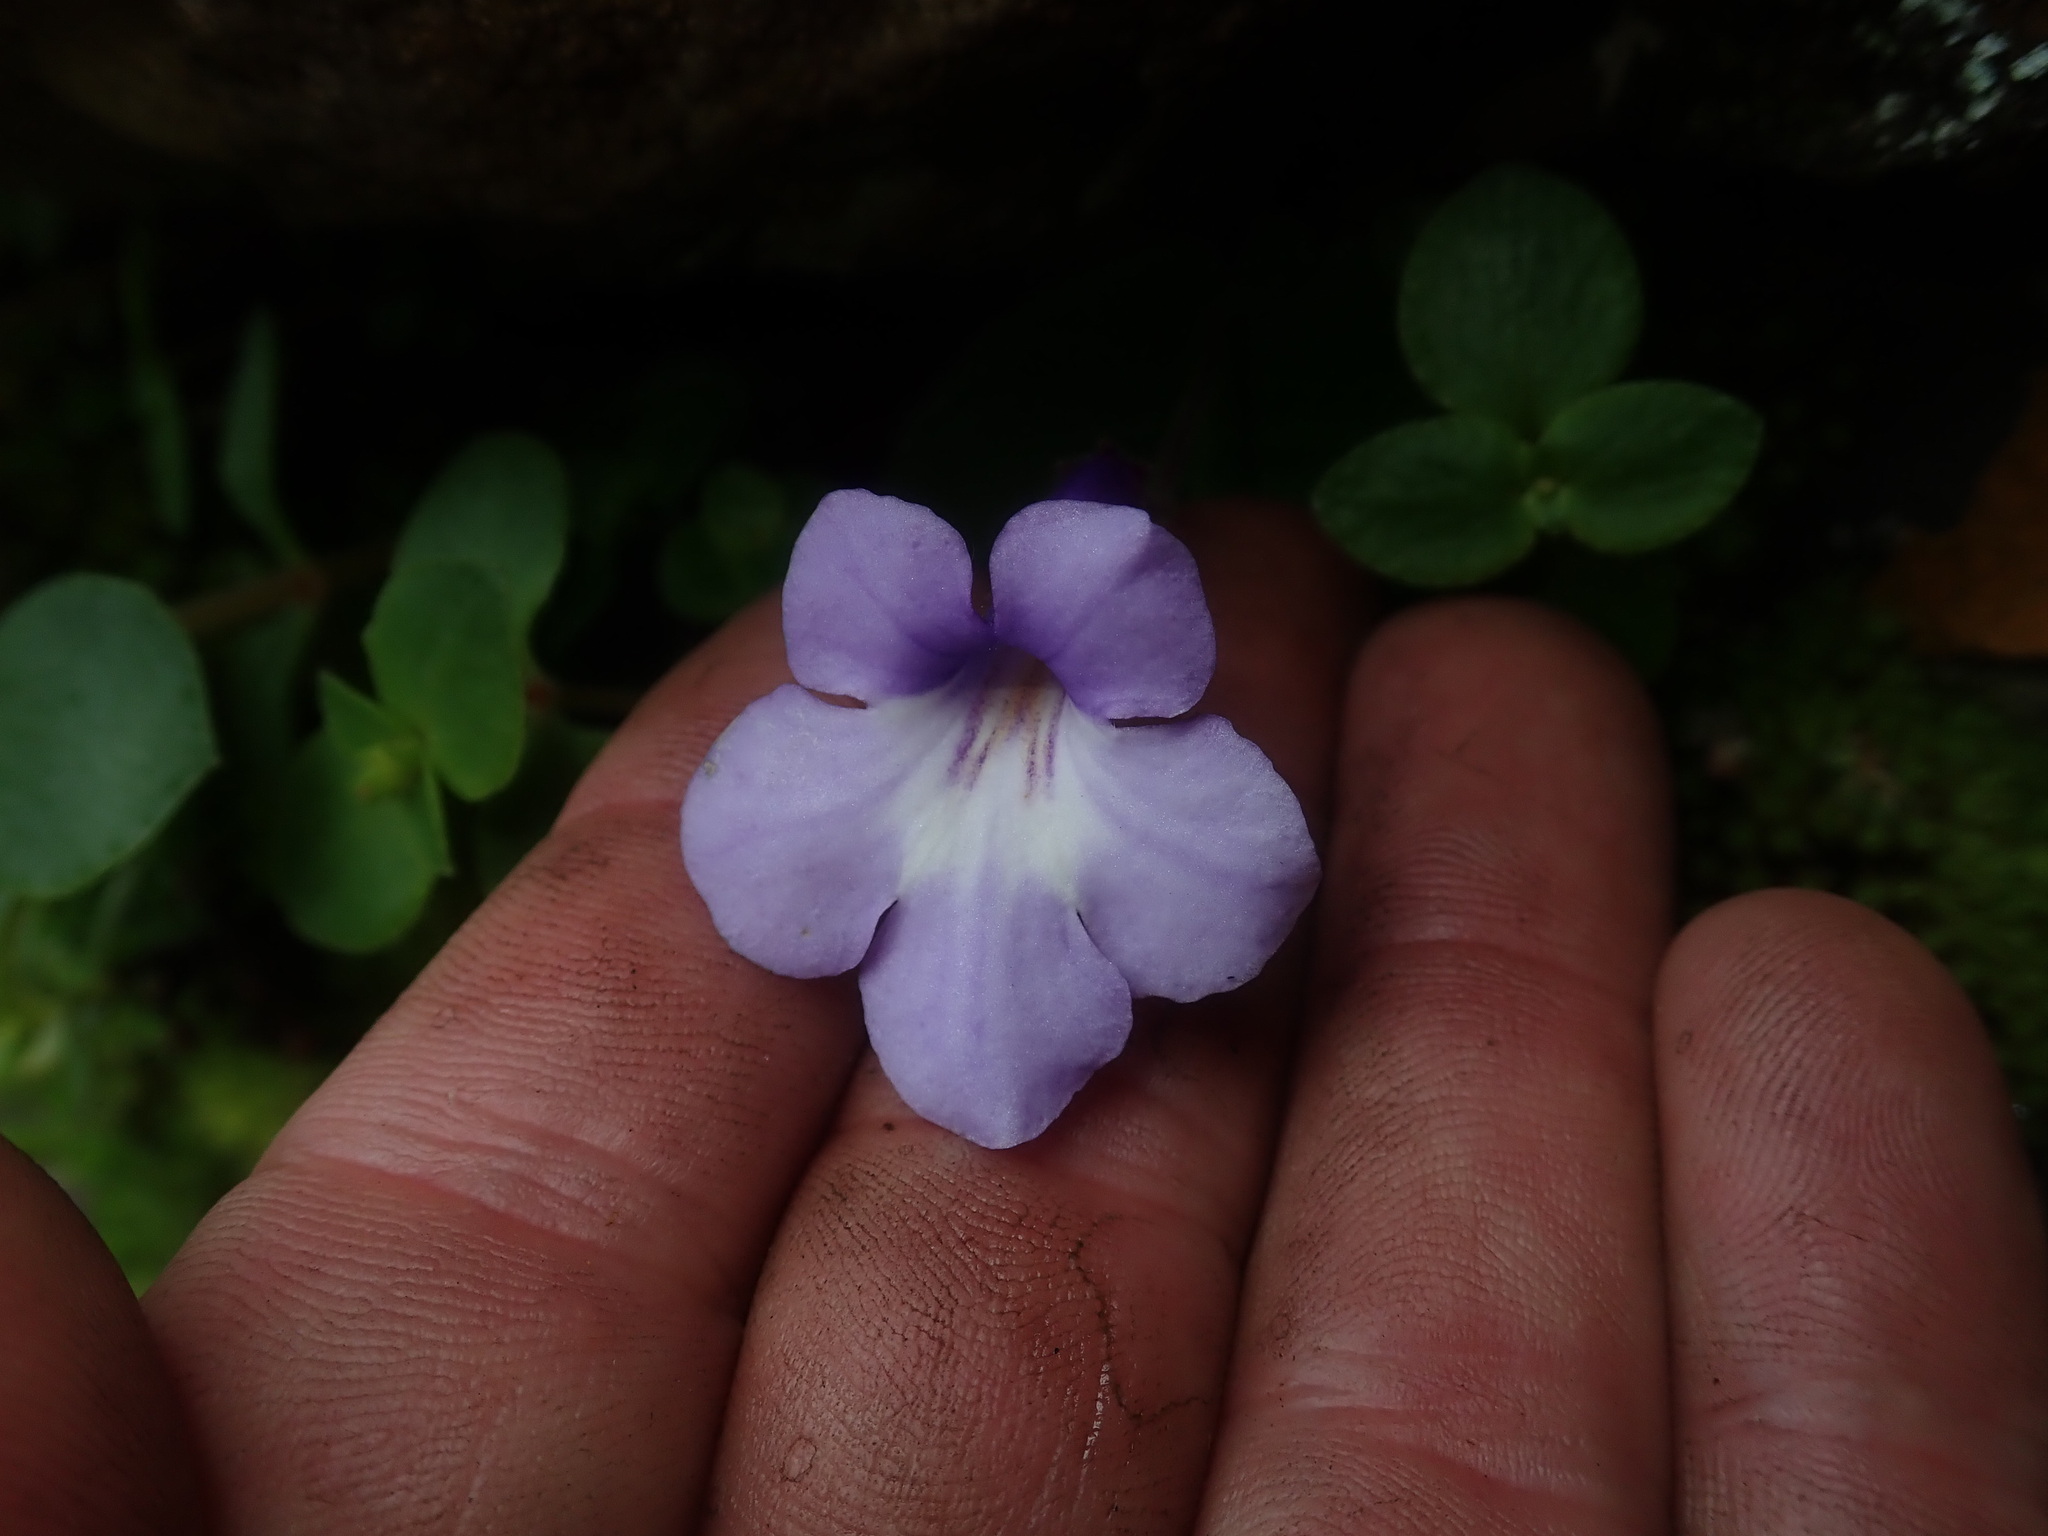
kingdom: Plantae
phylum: Tracheophyta
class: Magnoliopsida
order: Lamiales
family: Gesneriaceae
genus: Streptocarpus
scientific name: Streptocarpus hilburtianus
